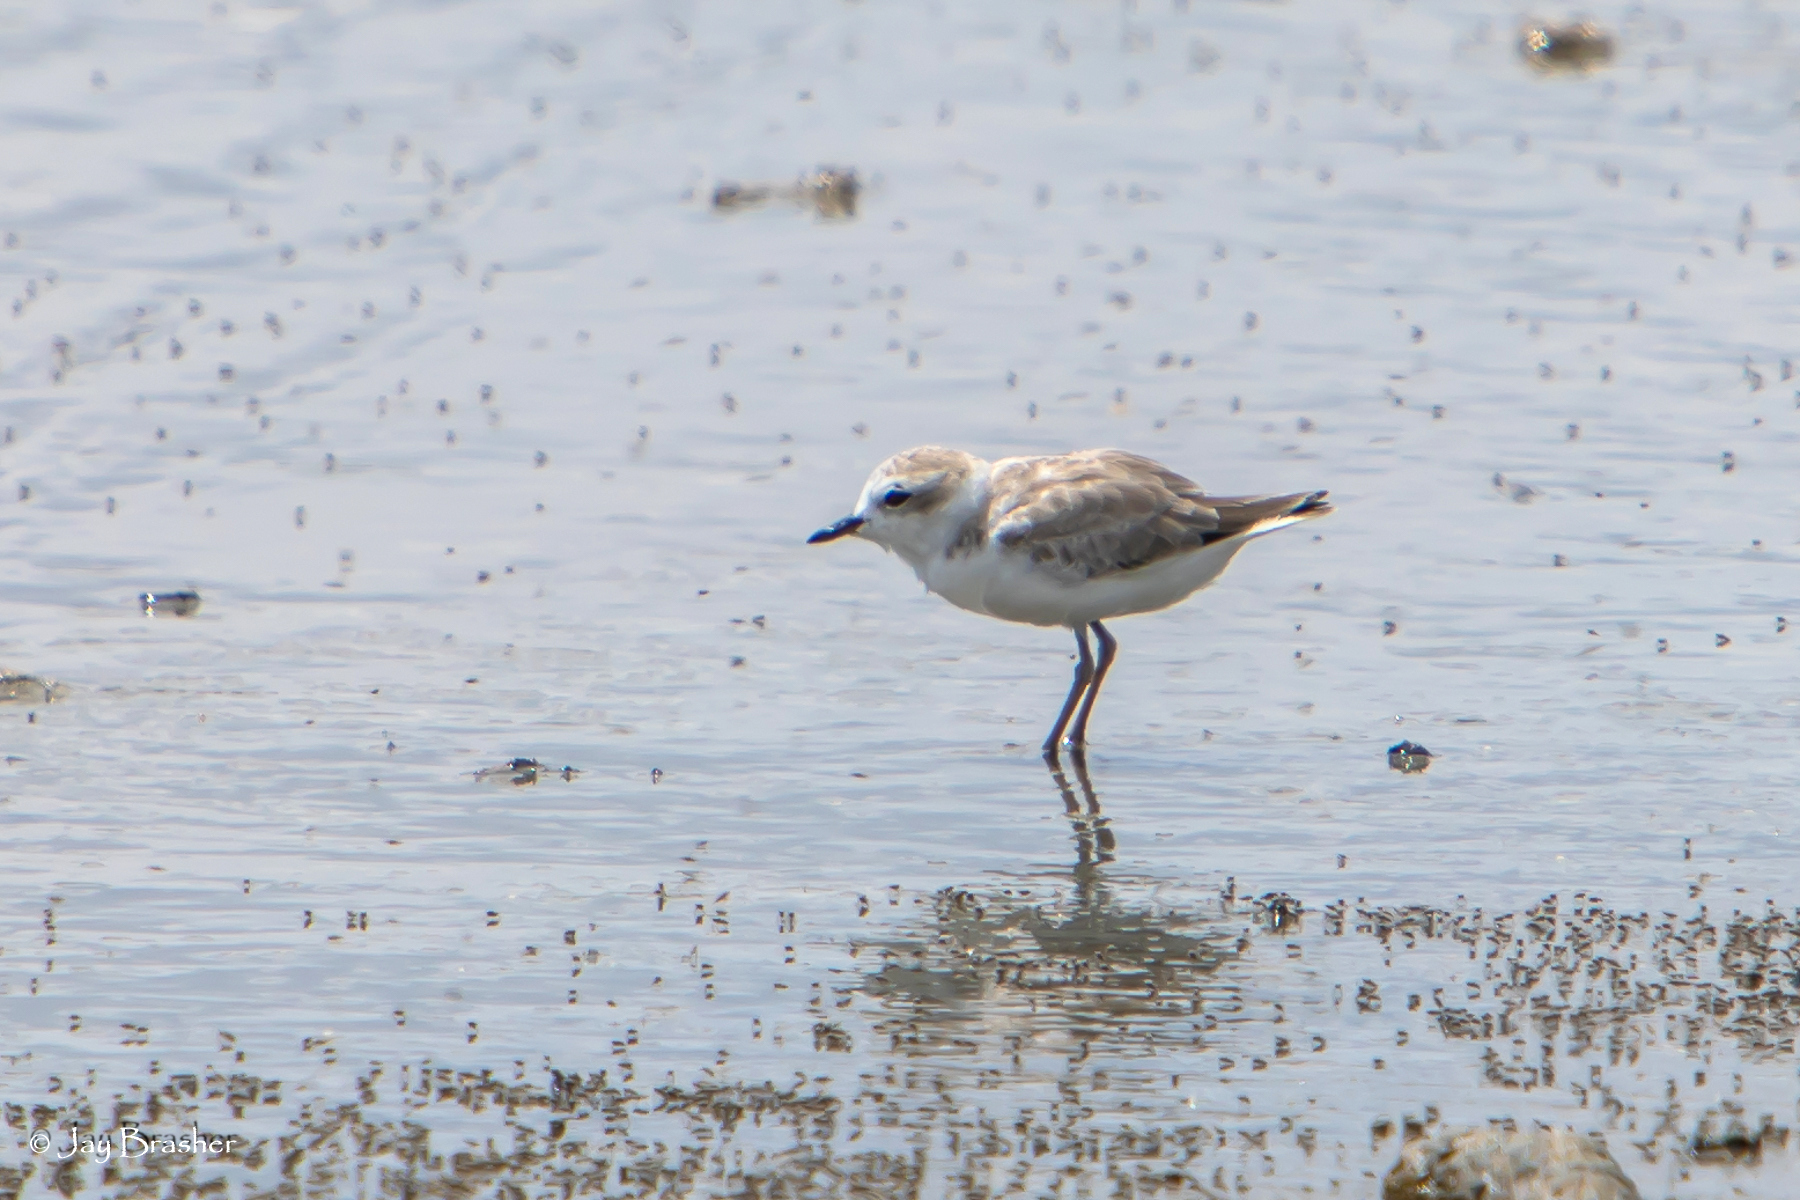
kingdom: Animalia
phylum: Chordata
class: Aves
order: Charadriiformes
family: Charadriidae
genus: Anarhynchus
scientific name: Anarhynchus
